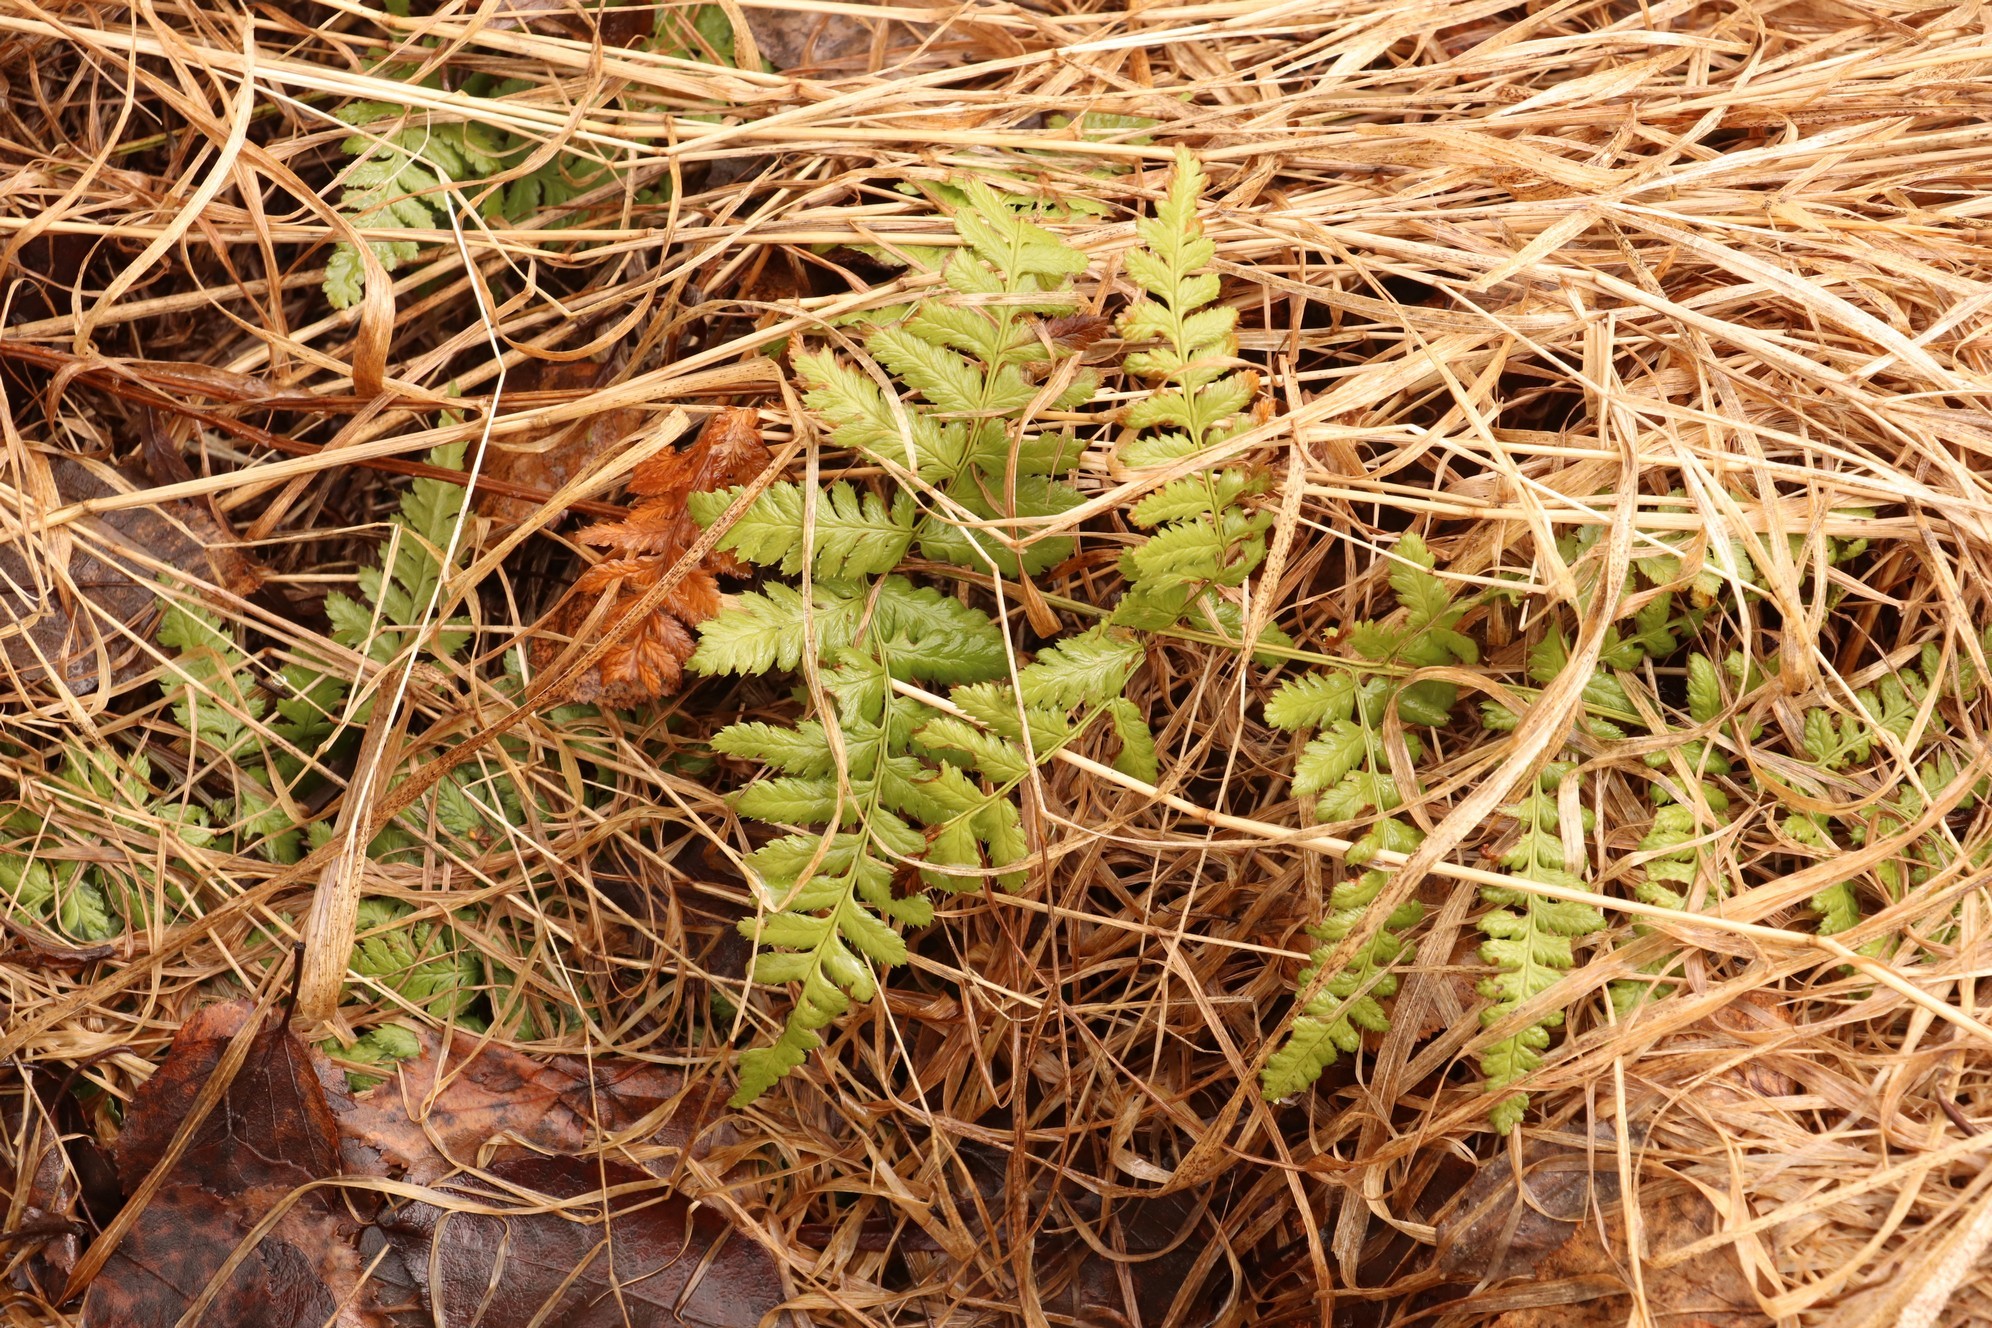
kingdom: Plantae
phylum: Tracheophyta
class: Polypodiopsida
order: Polypodiales
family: Dryopteridaceae
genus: Dryopteris
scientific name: Dryopteris carthusiana
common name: Narrow buckler-fern
